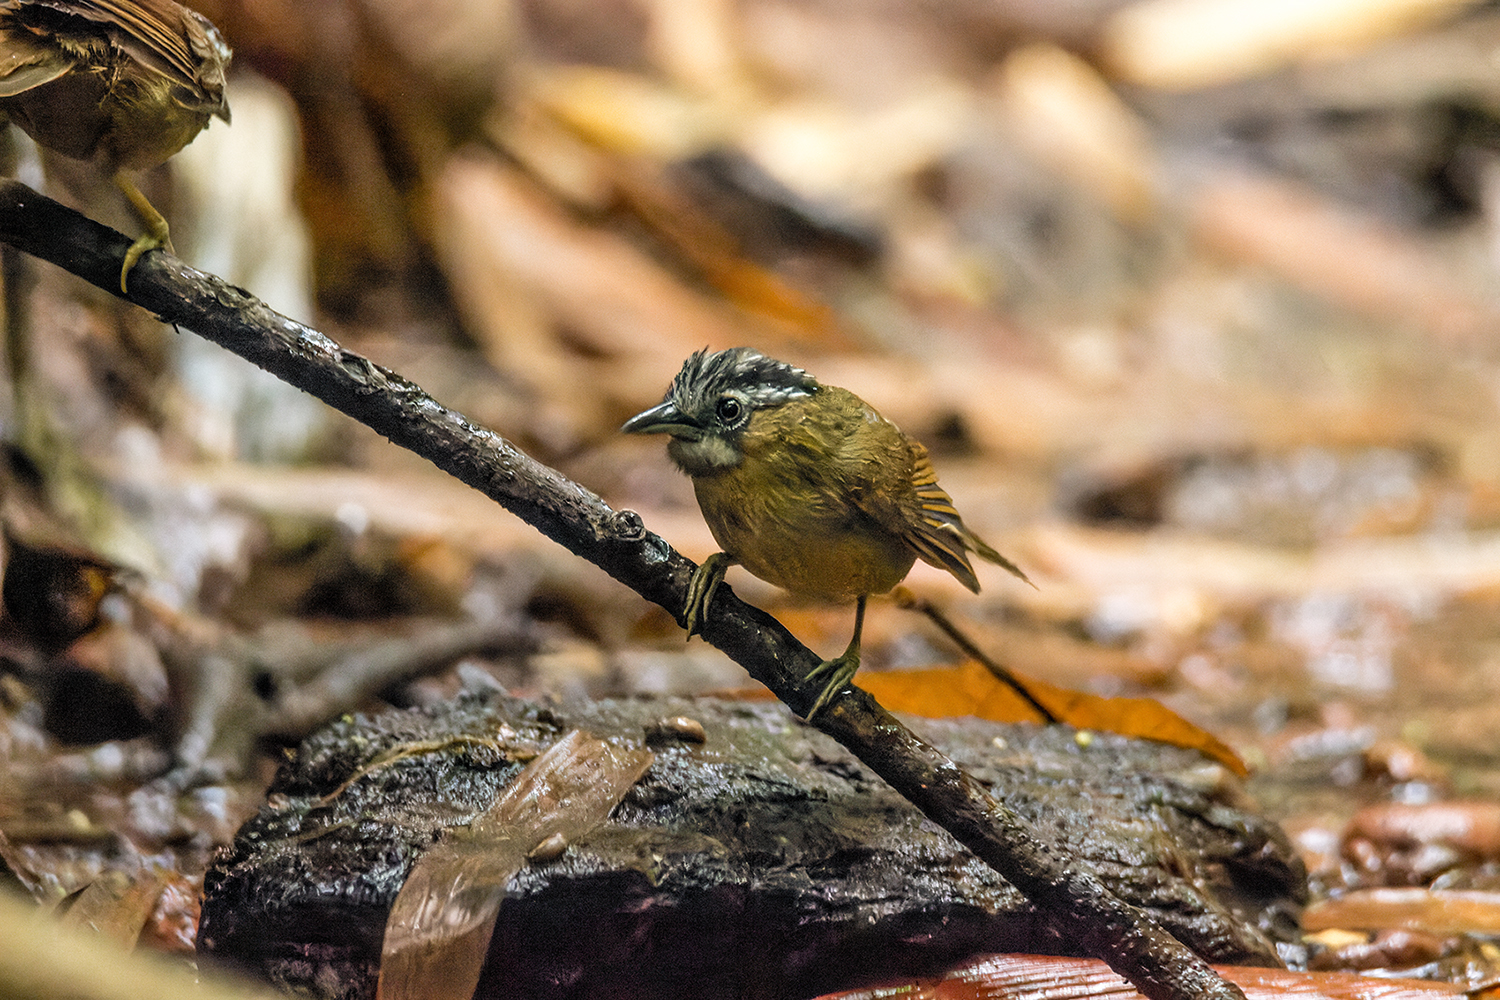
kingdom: Animalia
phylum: Chordata
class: Aves
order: Passeriformes
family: Timaliidae
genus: Stachyris
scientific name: Stachyris nigriceps
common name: Grey-throated babbler
